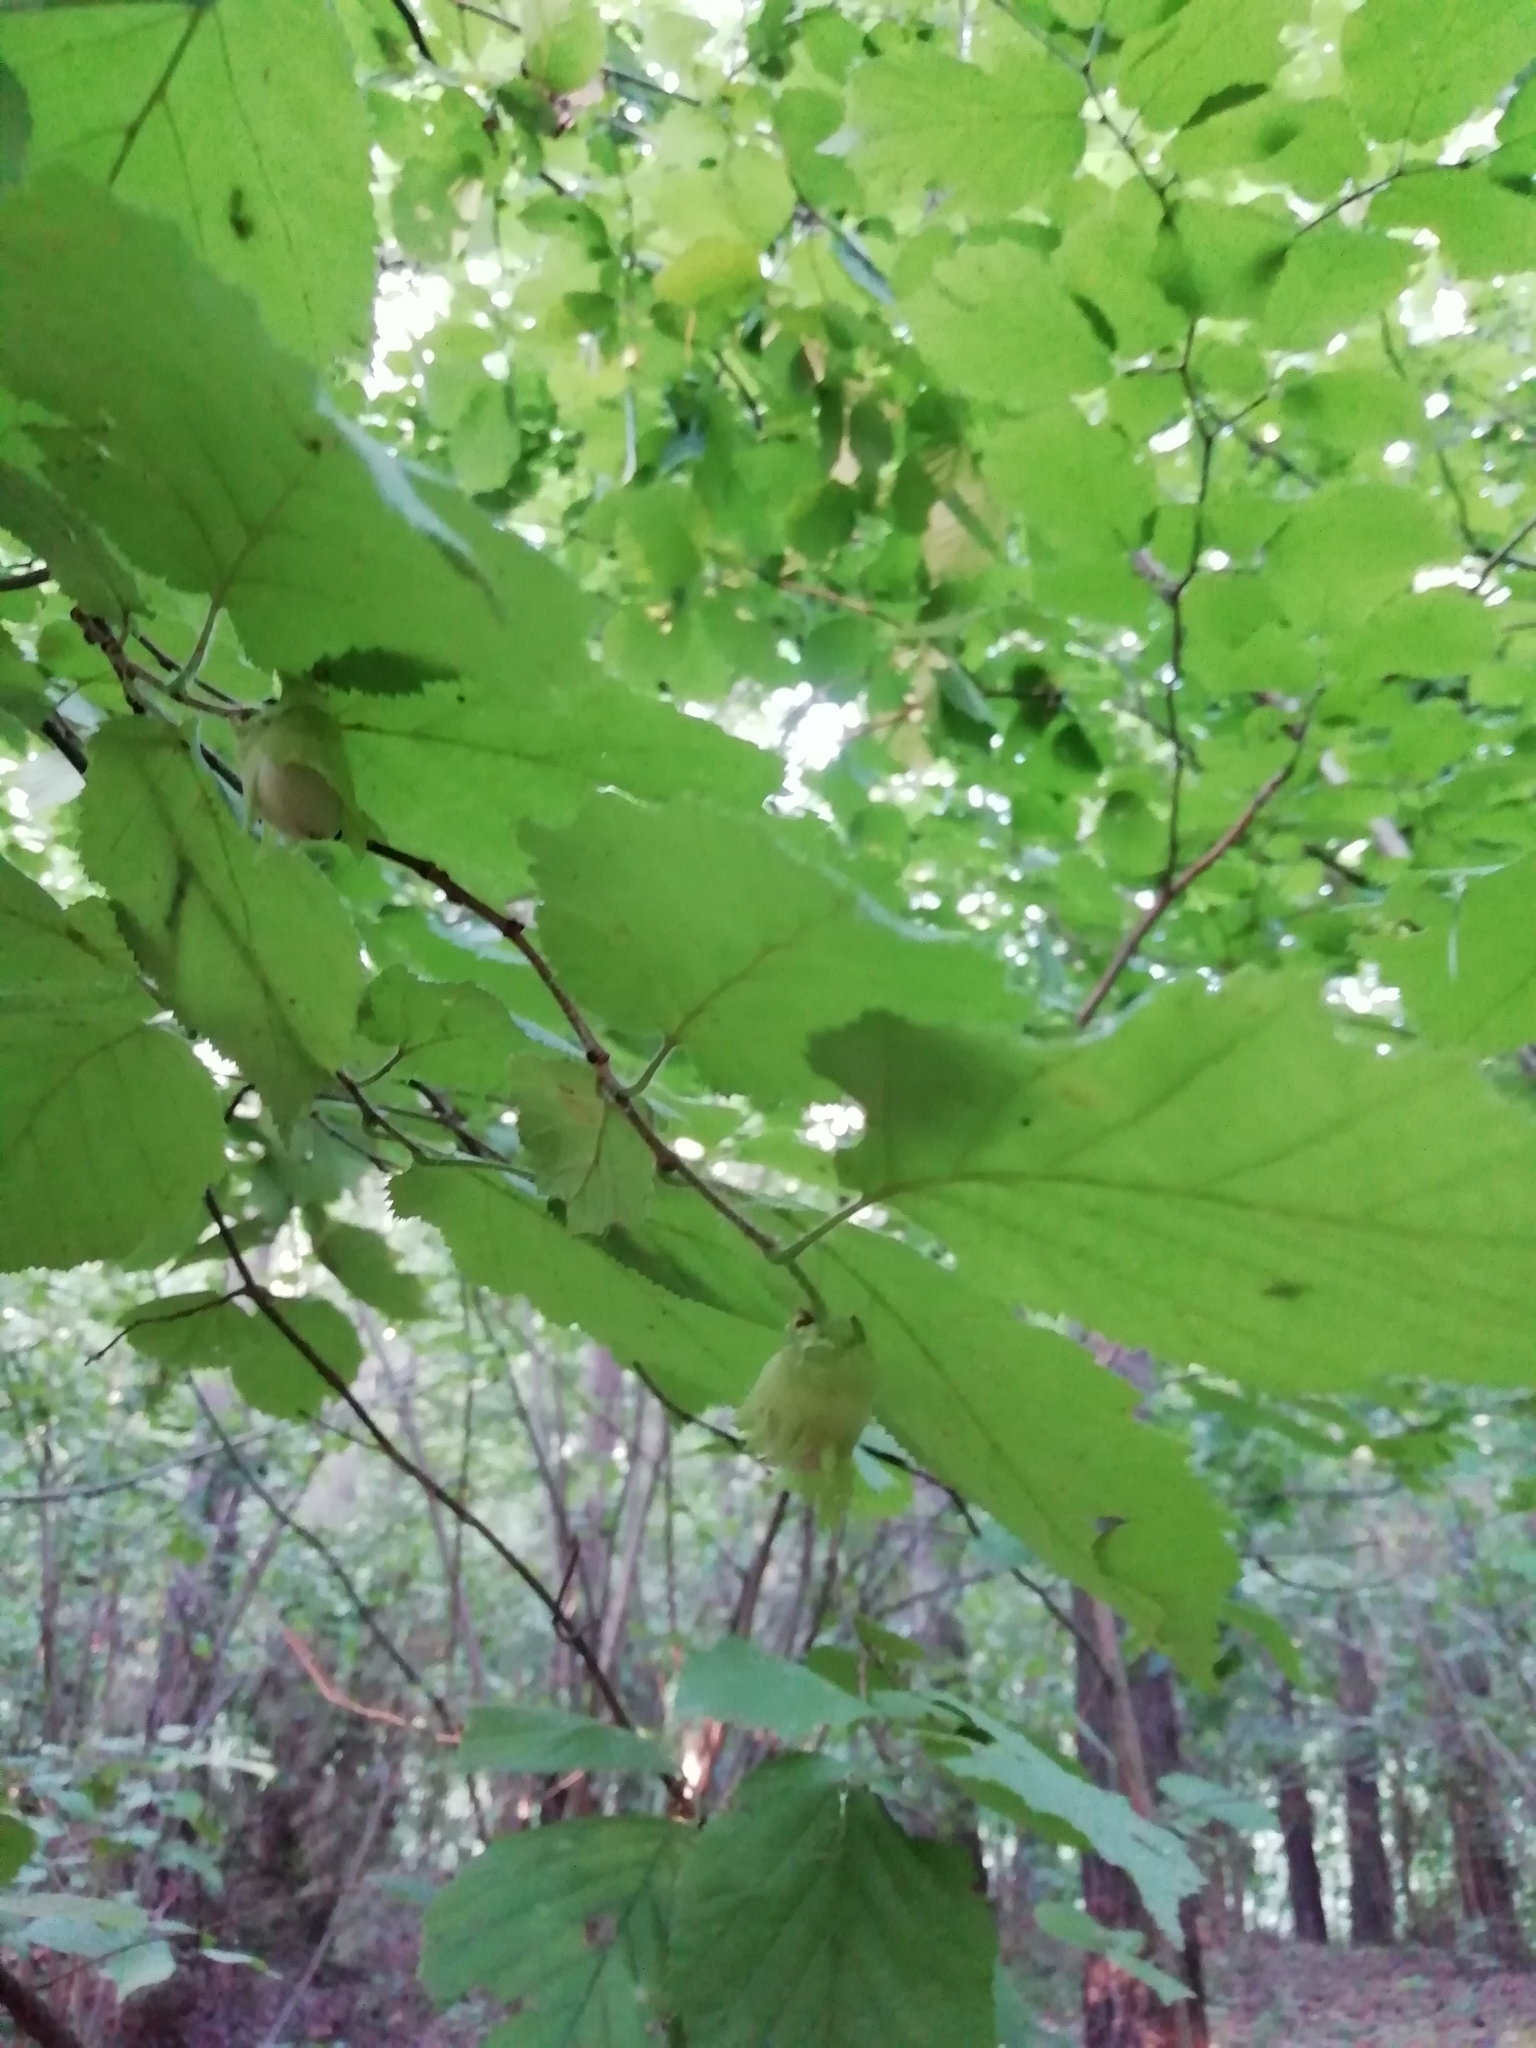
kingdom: Plantae
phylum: Tracheophyta
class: Magnoliopsida
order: Fagales
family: Betulaceae
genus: Corylus
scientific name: Corylus avellana
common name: European hazel
